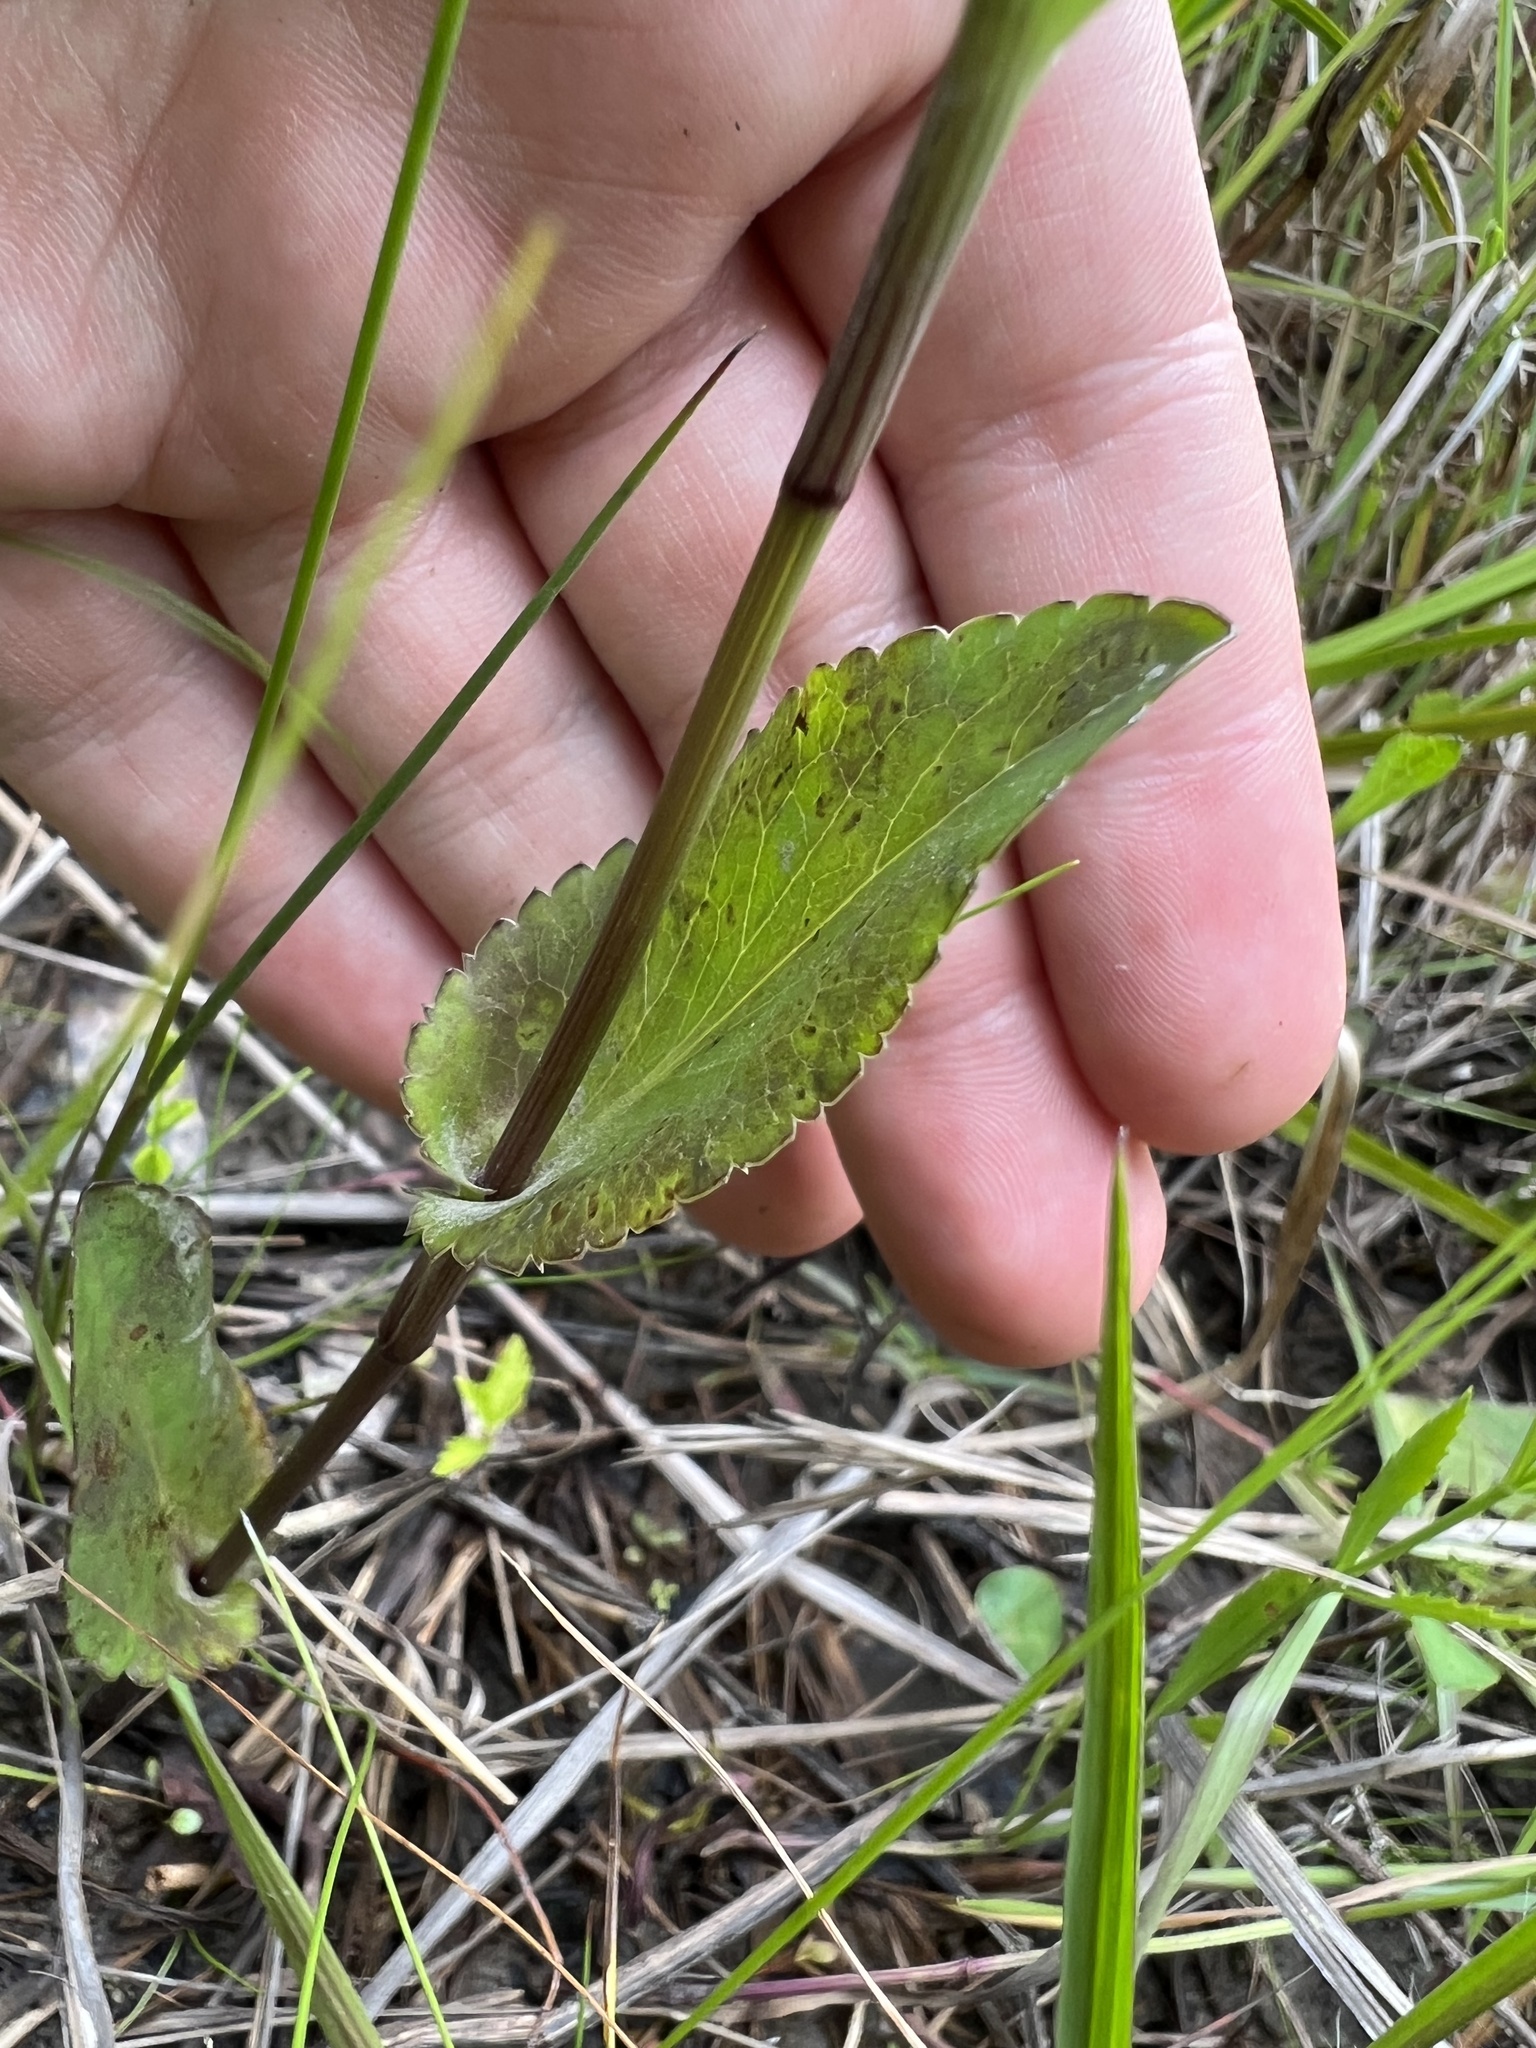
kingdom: Plantae
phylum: Tracheophyta
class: Magnoliopsida
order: Apiales
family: Apiaceae
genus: Eryngium
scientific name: Eryngium integrifolium
